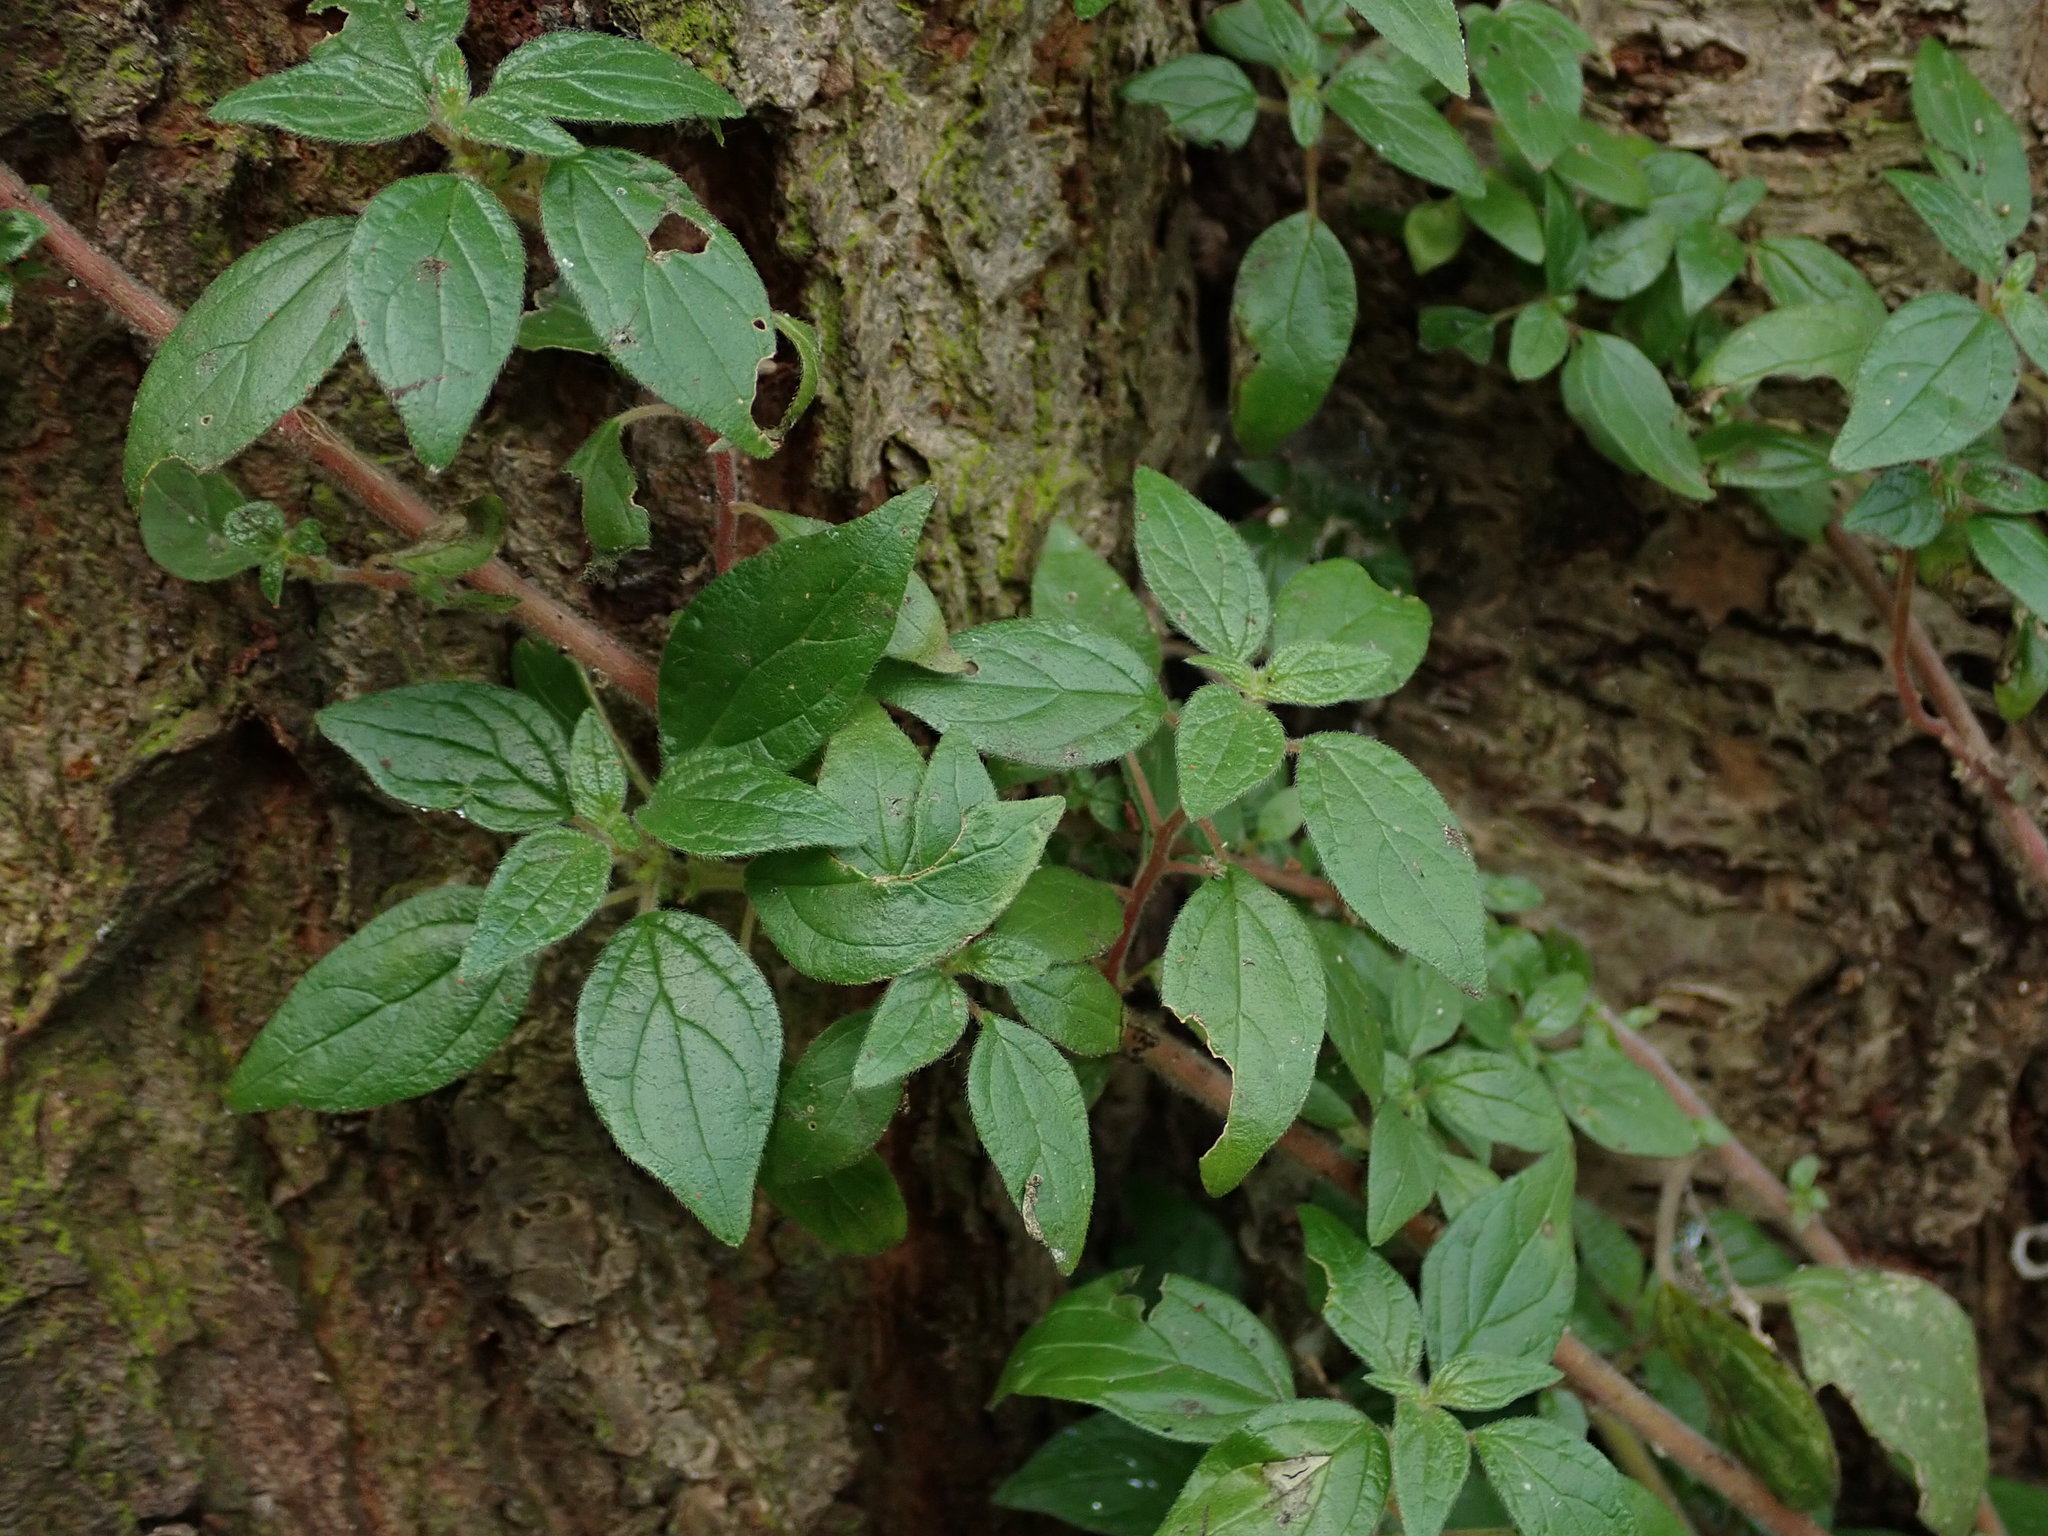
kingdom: Plantae
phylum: Tracheophyta
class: Magnoliopsida
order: Rosales
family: Urticaceae
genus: Parietaria
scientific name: Parietaria judaica
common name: Pellitory-of-the-wall
